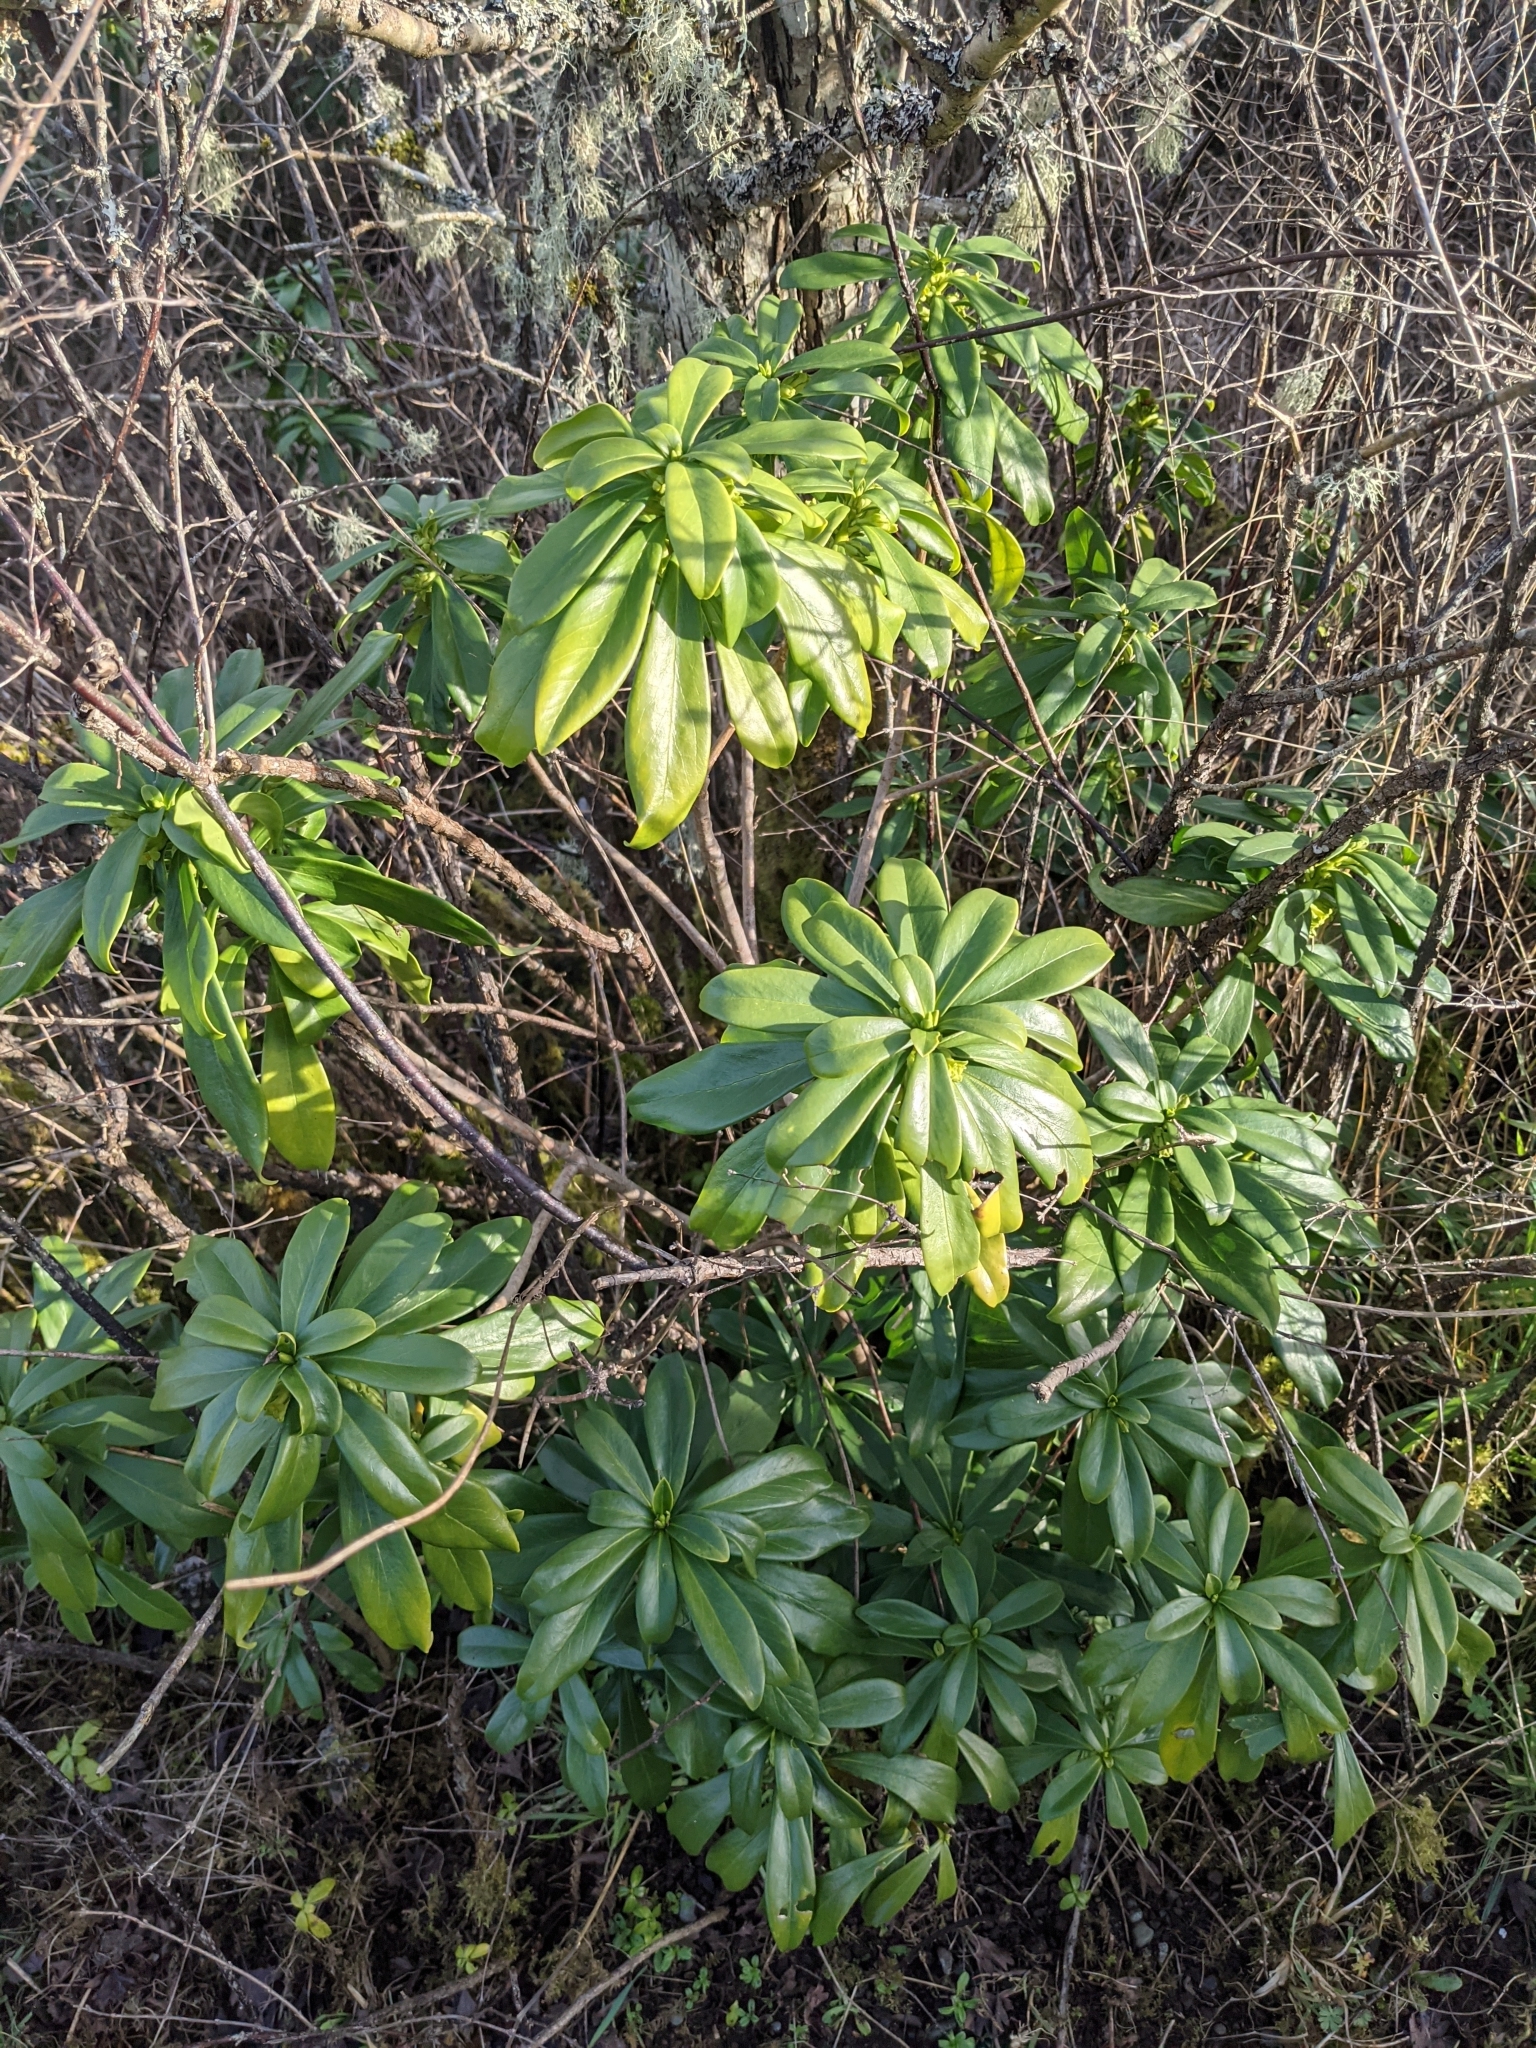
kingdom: Plantae
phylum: Tracheophyta
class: Magnoliopsida
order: Malvales
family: Thymelaeaceae
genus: Daphne
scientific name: Daphne laureola
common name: Spurge-laurel
